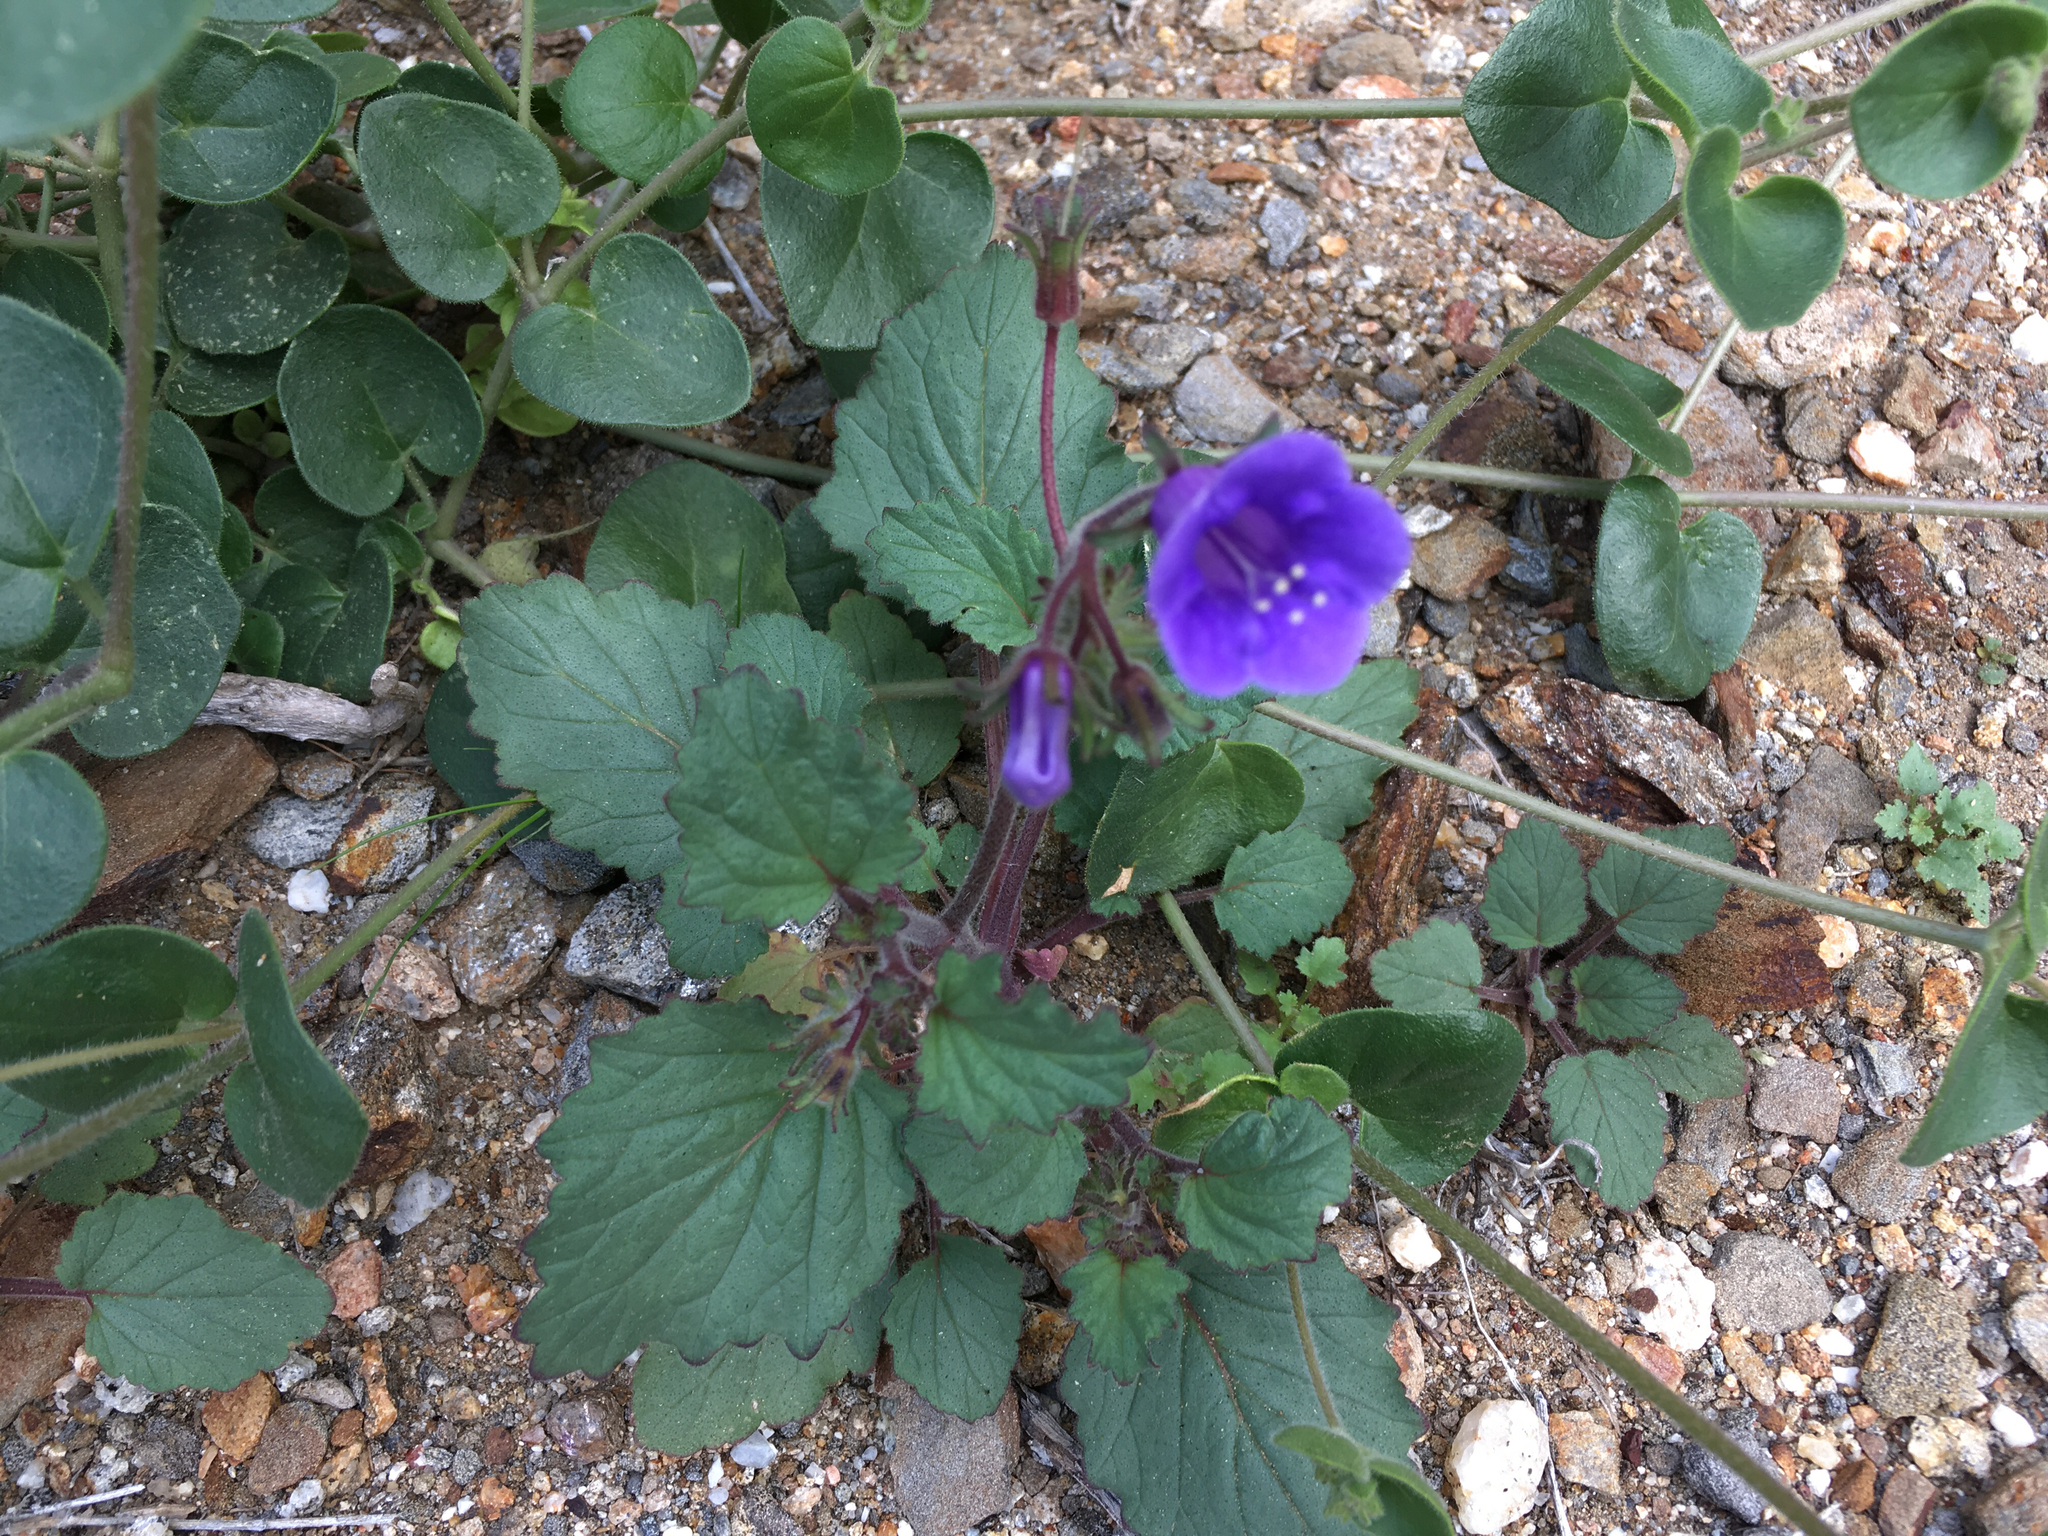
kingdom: Plantae
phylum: Tracheophyta
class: Magnoliopsida
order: Boraginales
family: Hydrophyllaceae
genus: Phacelia
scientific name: Phacelia minor
